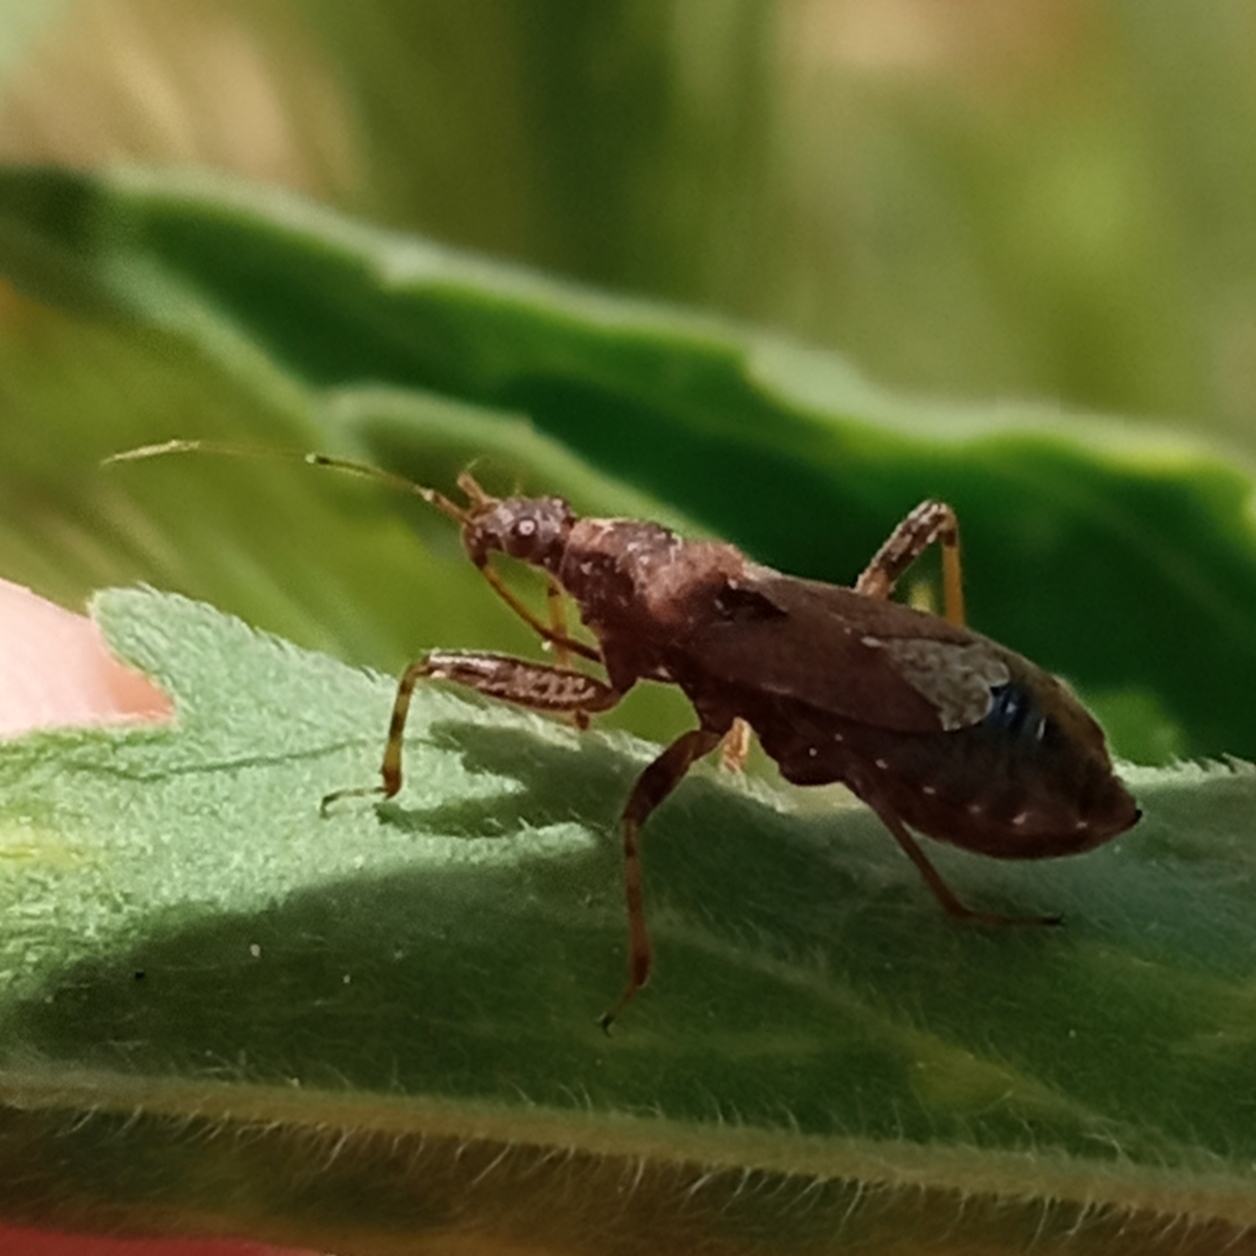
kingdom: Animalia
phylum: Arthropoda
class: Insecta
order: Hemiptera
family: Nabidae
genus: Himacerus
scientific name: Himacerus mirmicoides
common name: Ant damsel bug
